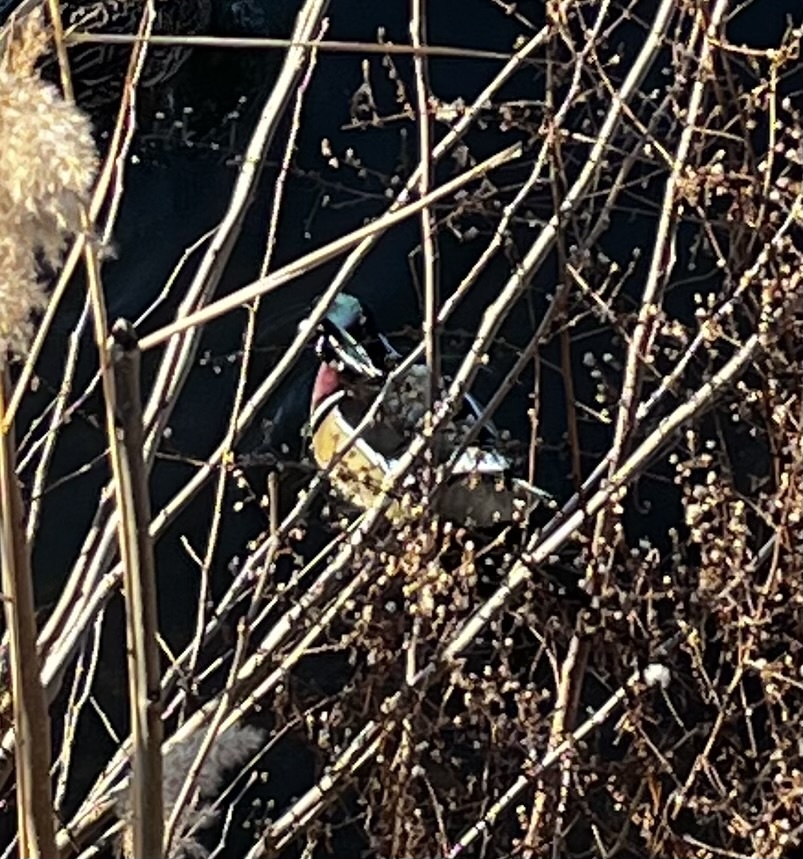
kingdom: Animalia
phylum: Chordata
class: Aves
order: Anseriformes
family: Anatidae
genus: Aix
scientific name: Aix sponsa
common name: Wood duck
